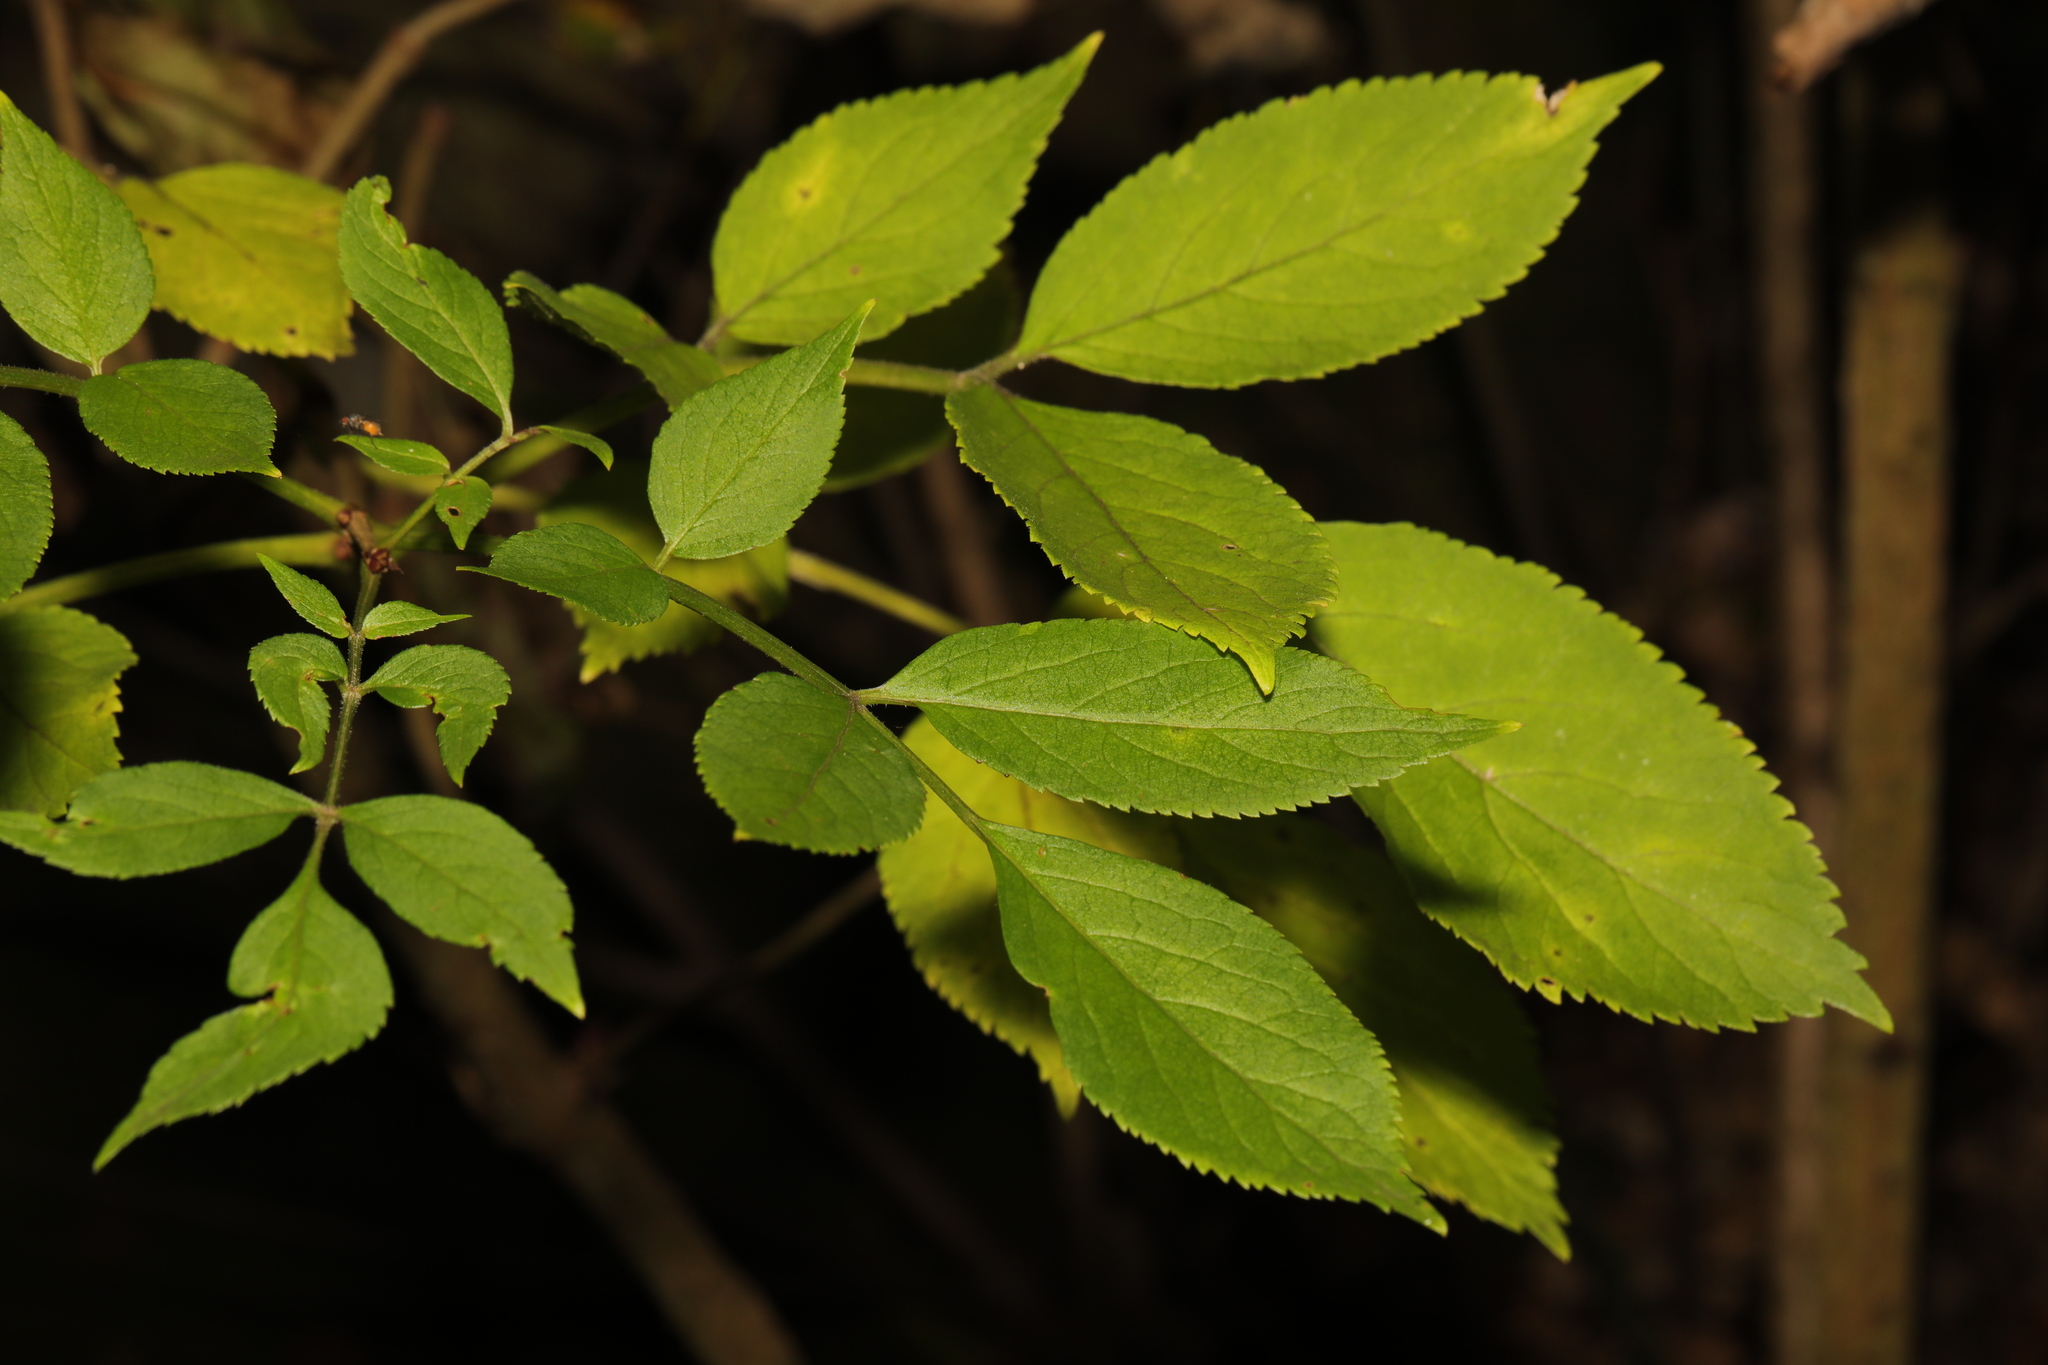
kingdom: Plantae
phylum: Tracheophyta
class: Magnoliopsida
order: Dipsacales
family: Viburnaceae
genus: Sambucus
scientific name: Sambucus nigra
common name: Elder
